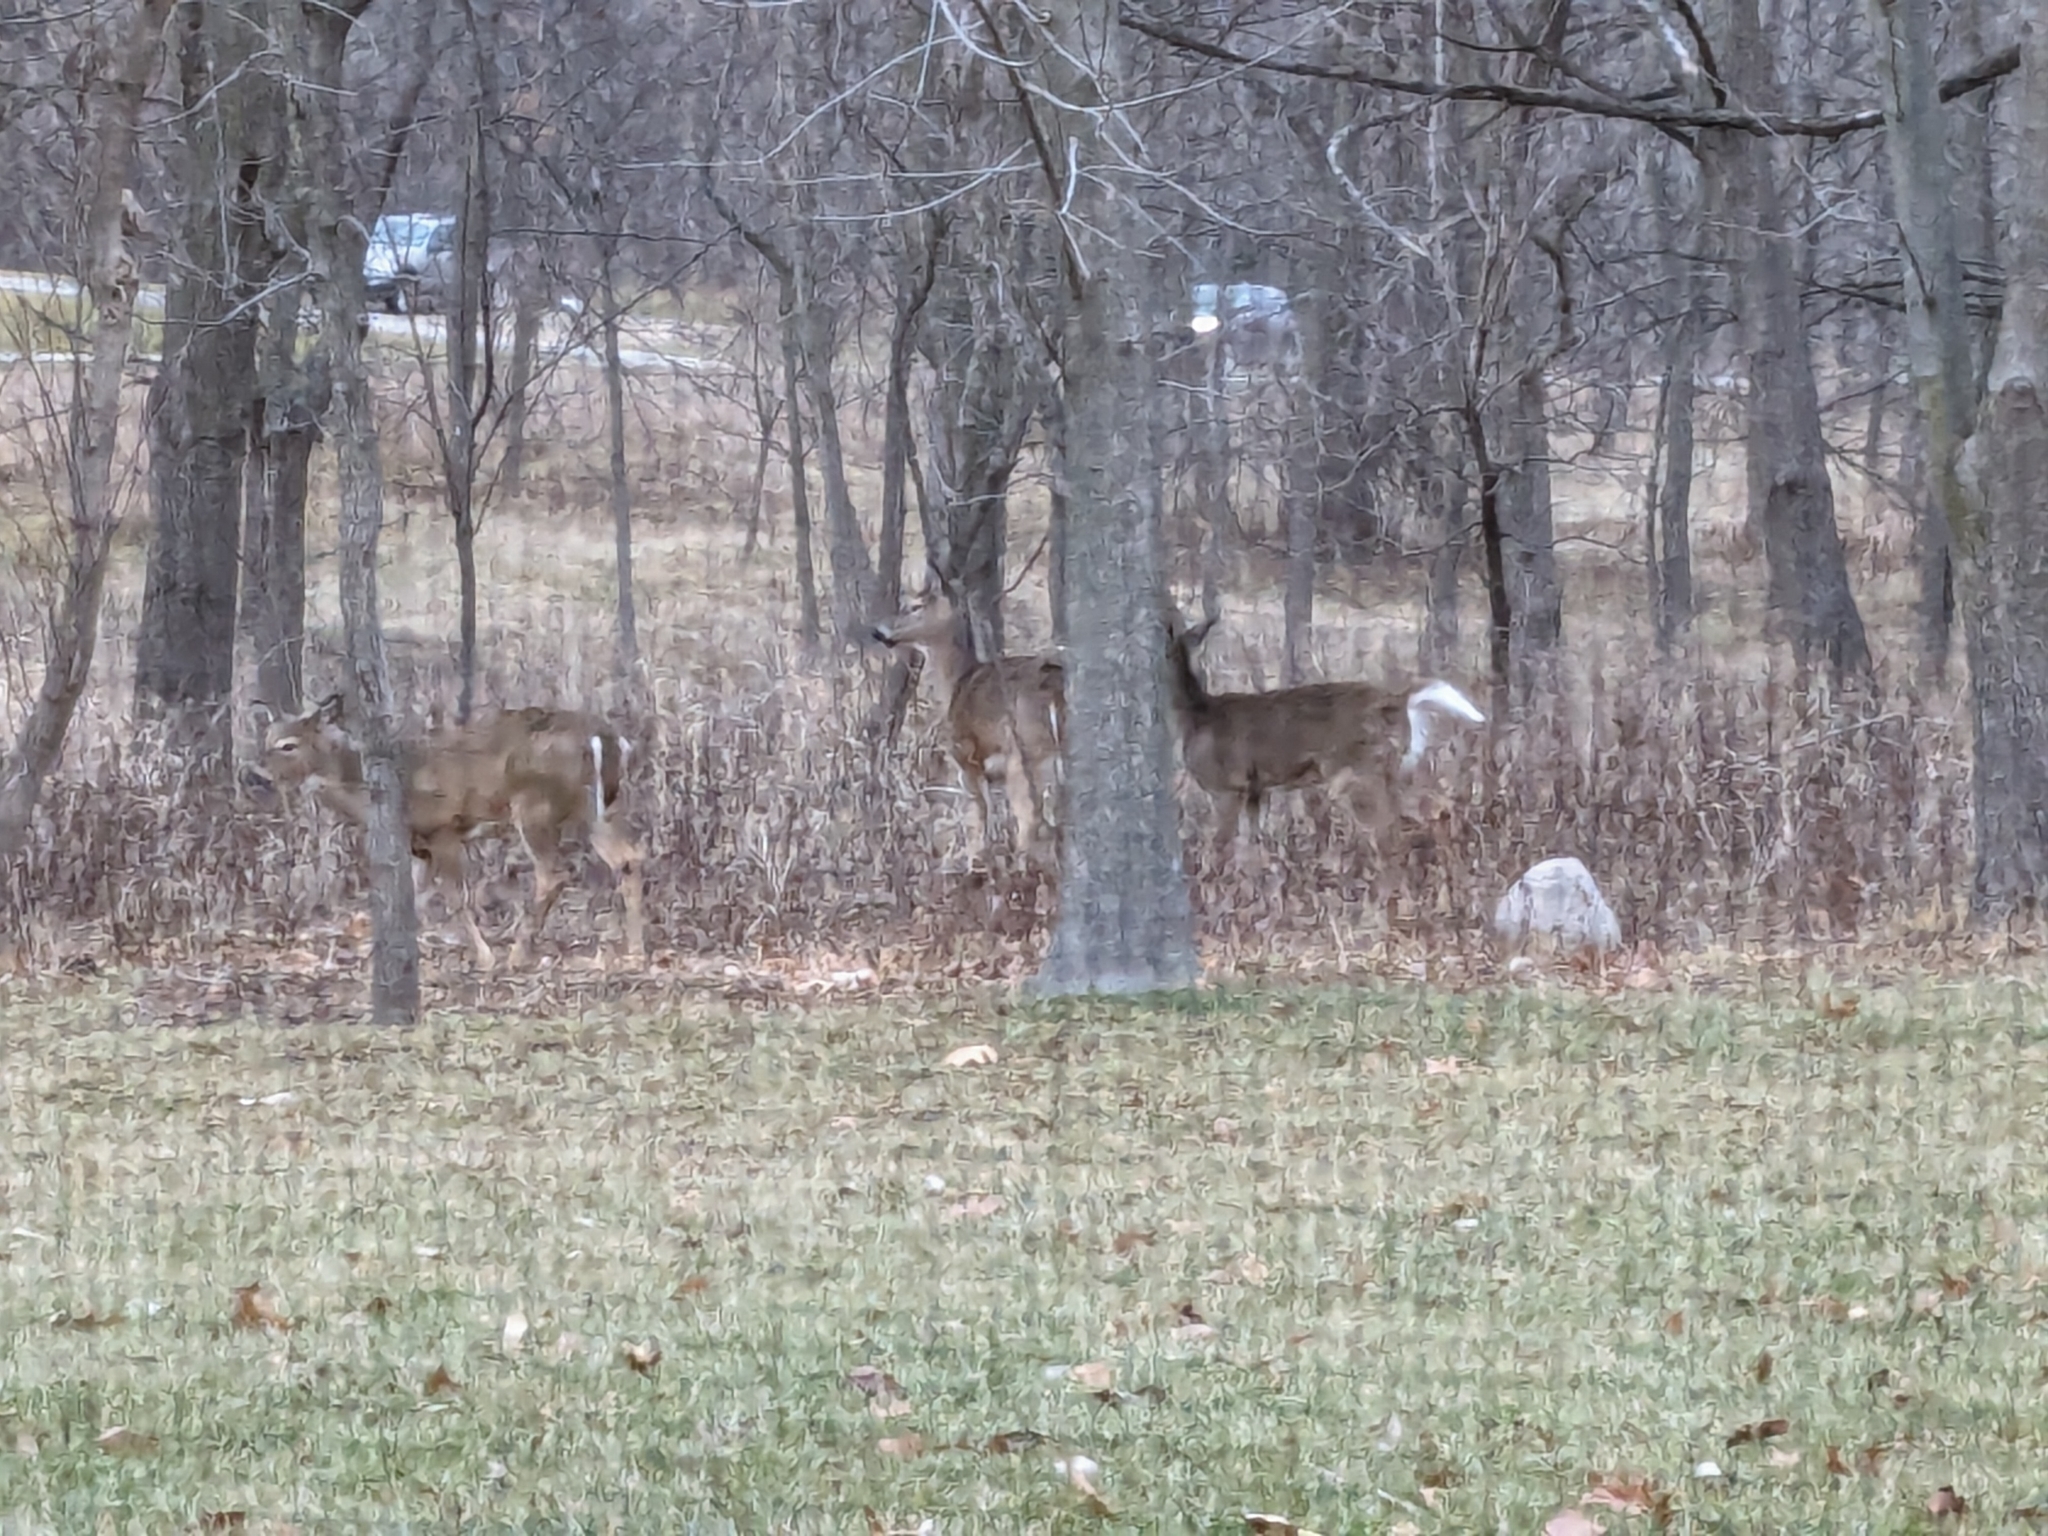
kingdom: Animalia
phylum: Chordata
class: Mammalia
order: Artiodactyla
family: Cervidae
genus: Odocoileus
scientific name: Odocoileus virginianus
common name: White-tailed deer
